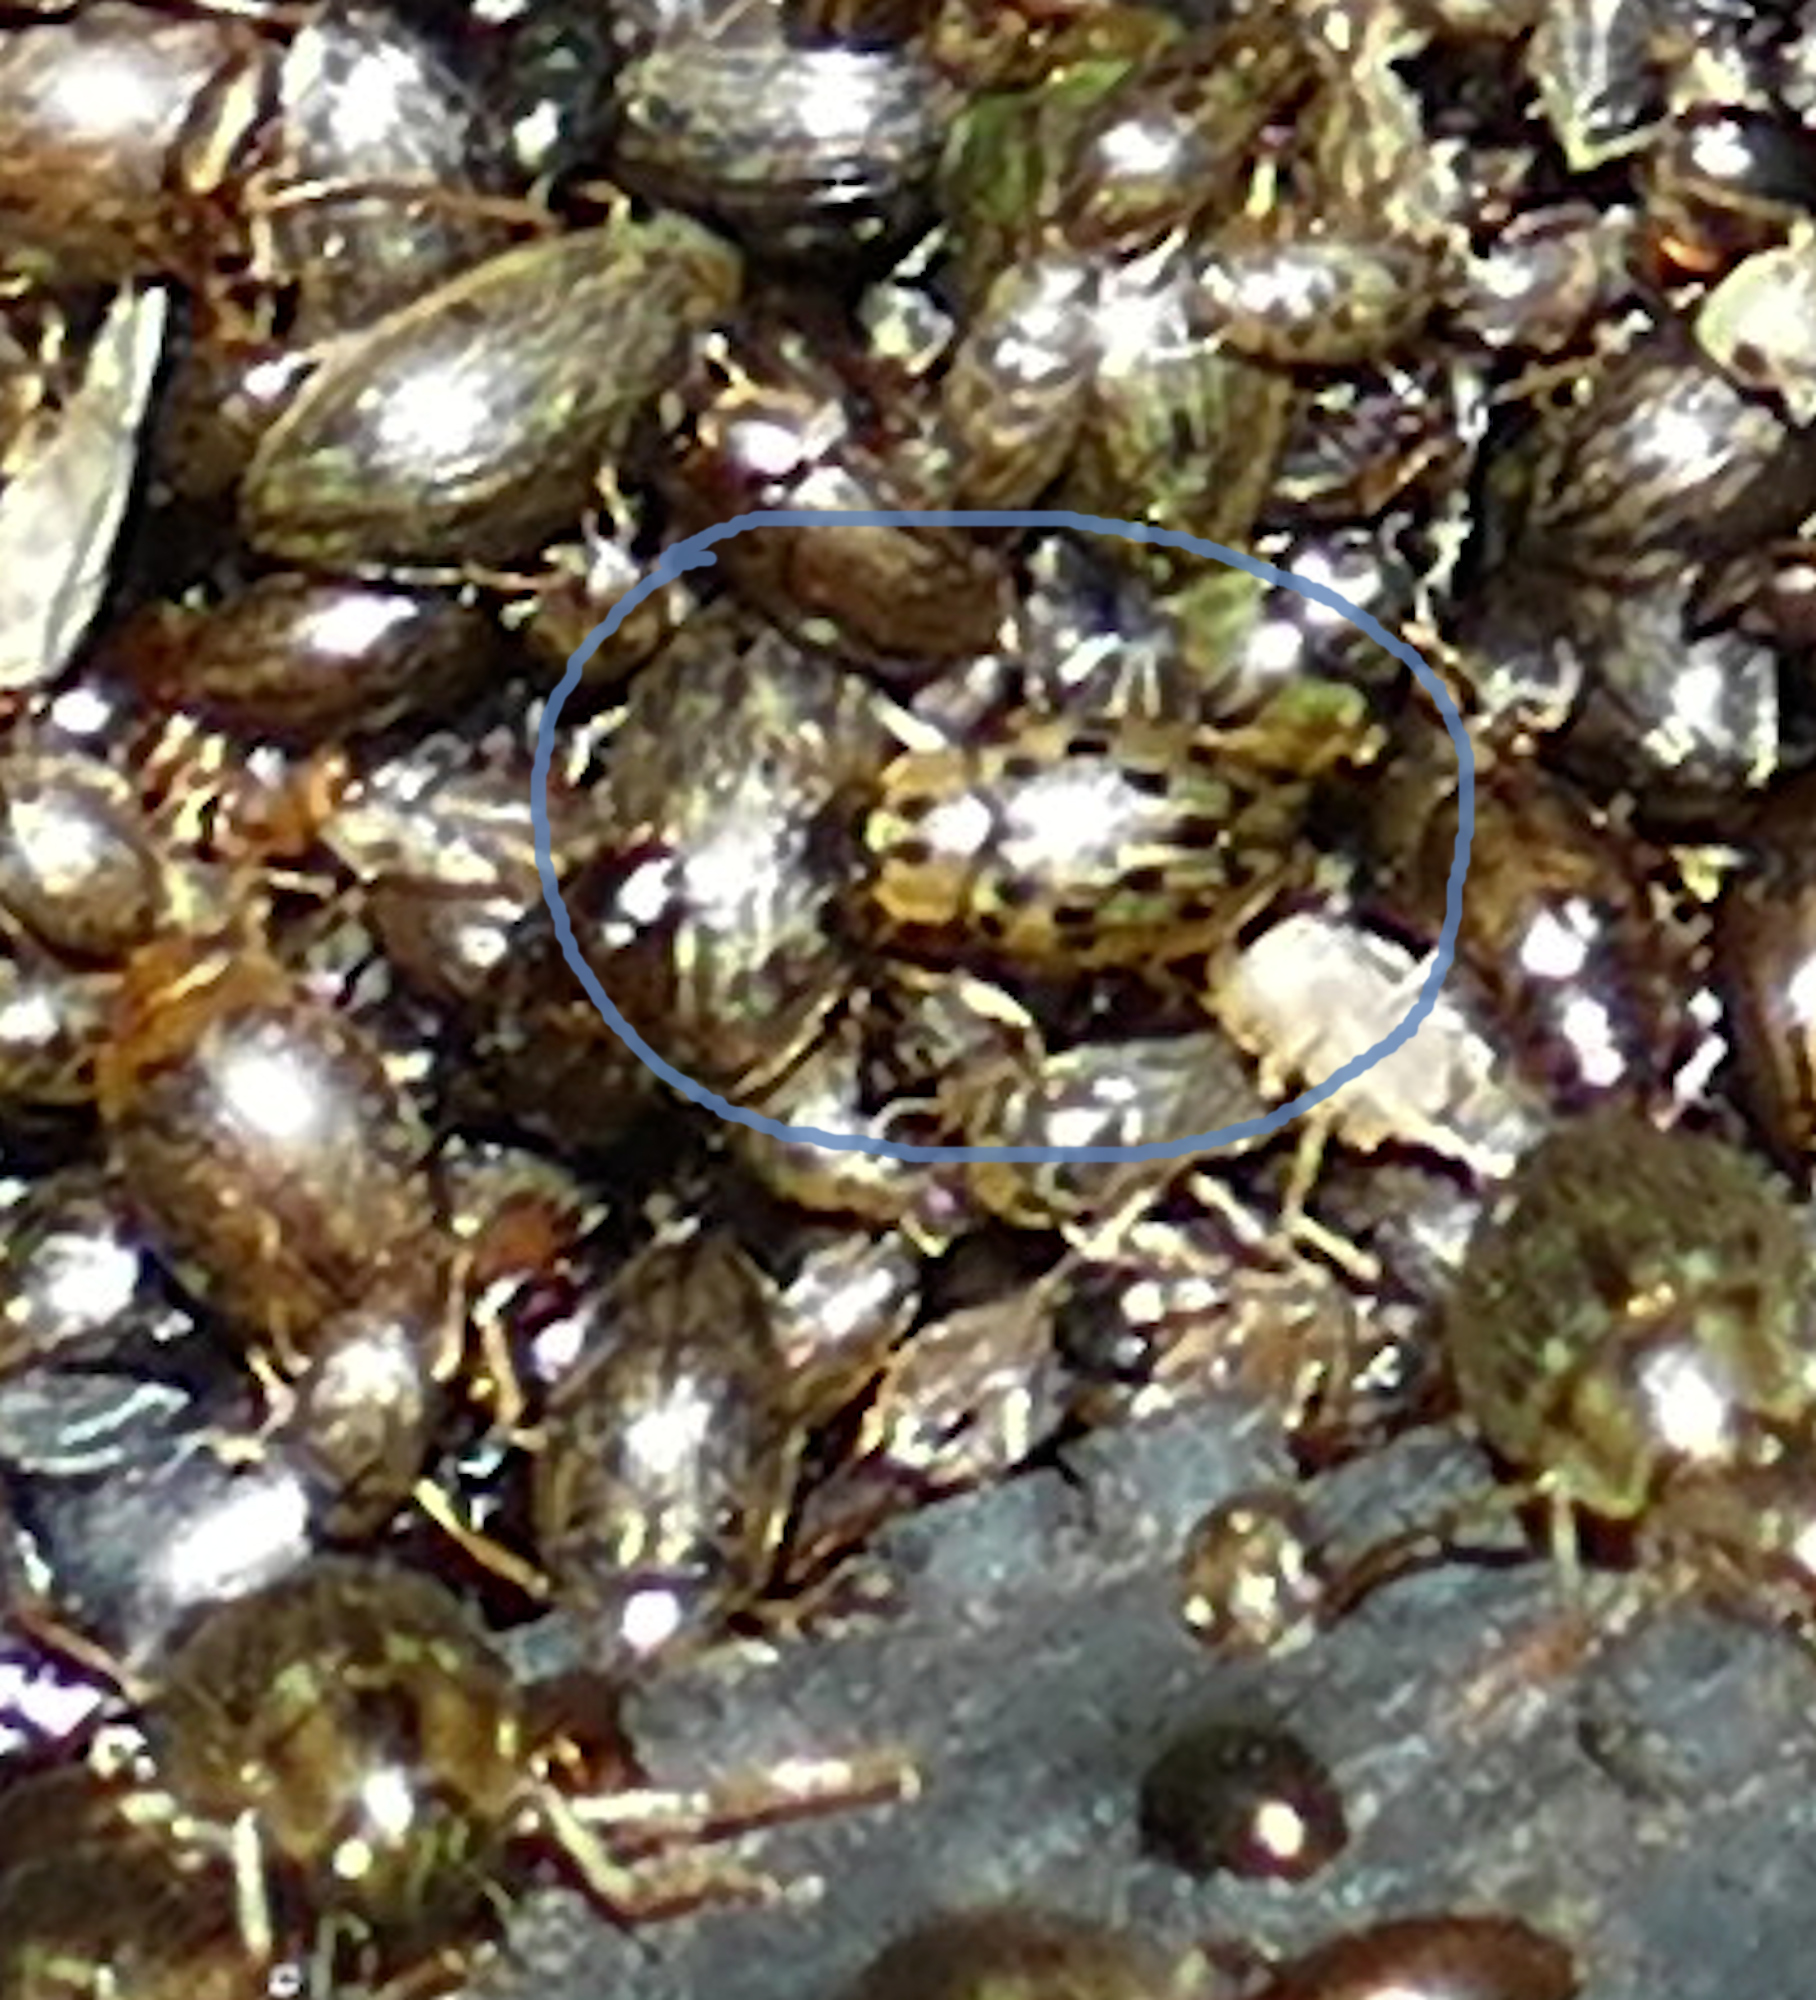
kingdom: Animalia
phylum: Arthropoda
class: Insecta
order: Coleoptera
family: Hydrophilidae
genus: Berosus
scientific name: Berosus pantherinus
